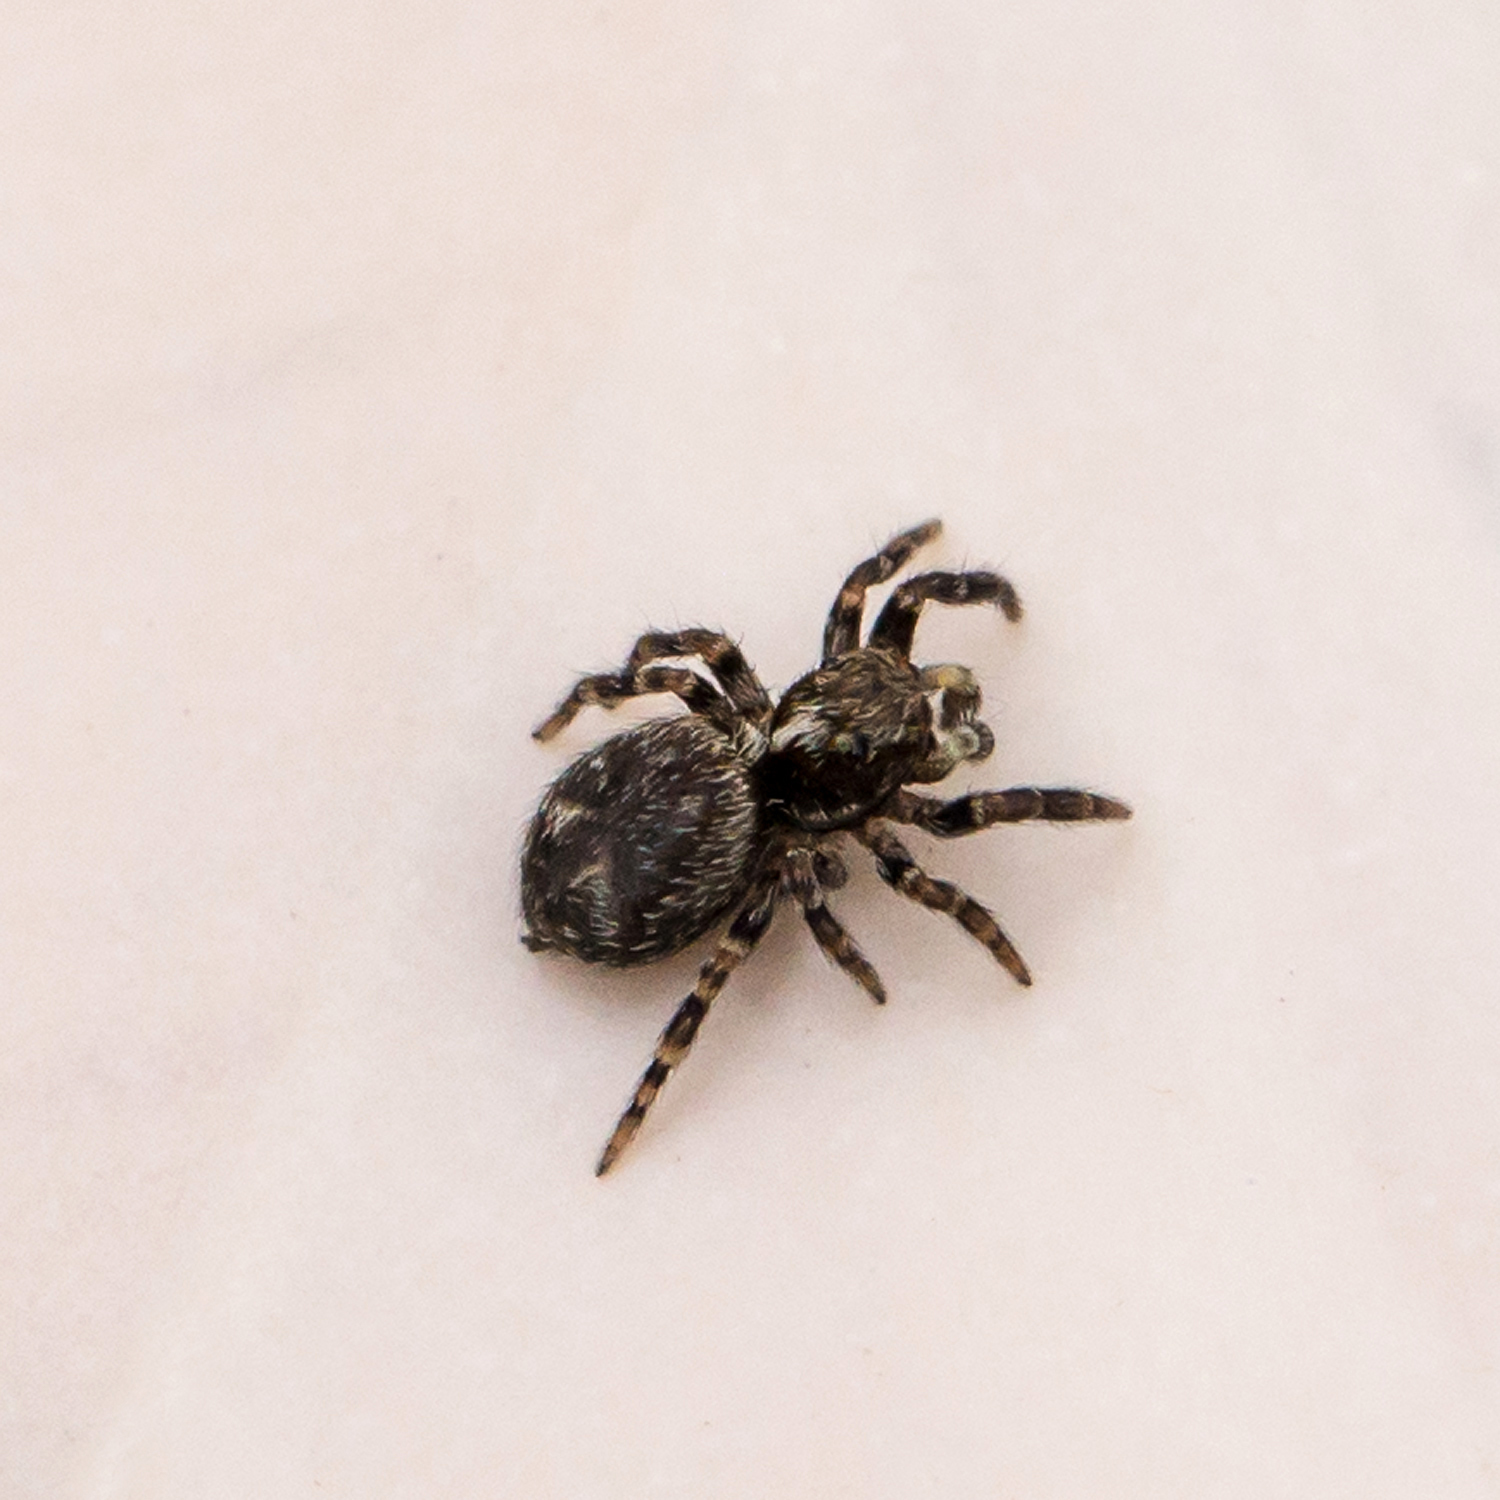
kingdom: Animalia
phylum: Arthropoda
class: Arachnida
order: Araneae
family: Salticidae
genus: Pseudeuophrys
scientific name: Pseudeuophrys erratica
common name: Jumping spider
